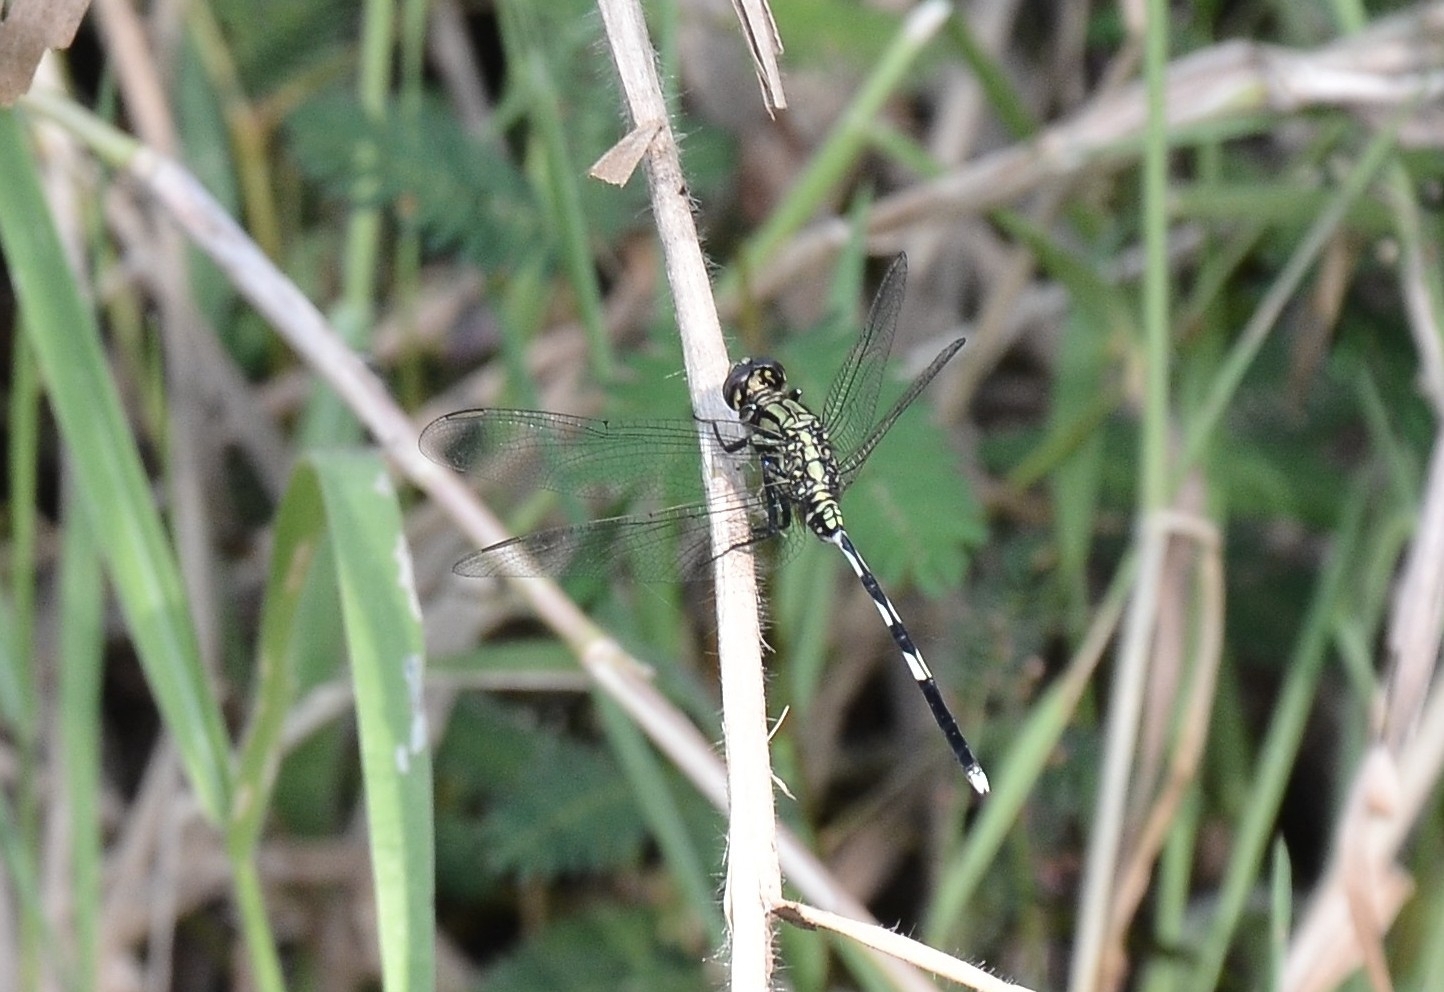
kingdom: Animalia
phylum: Arthropoda
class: Insecta
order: Odonata
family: Libellulidae
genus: Orthetrum
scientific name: Orthetrum sabina
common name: Slender skimmer
